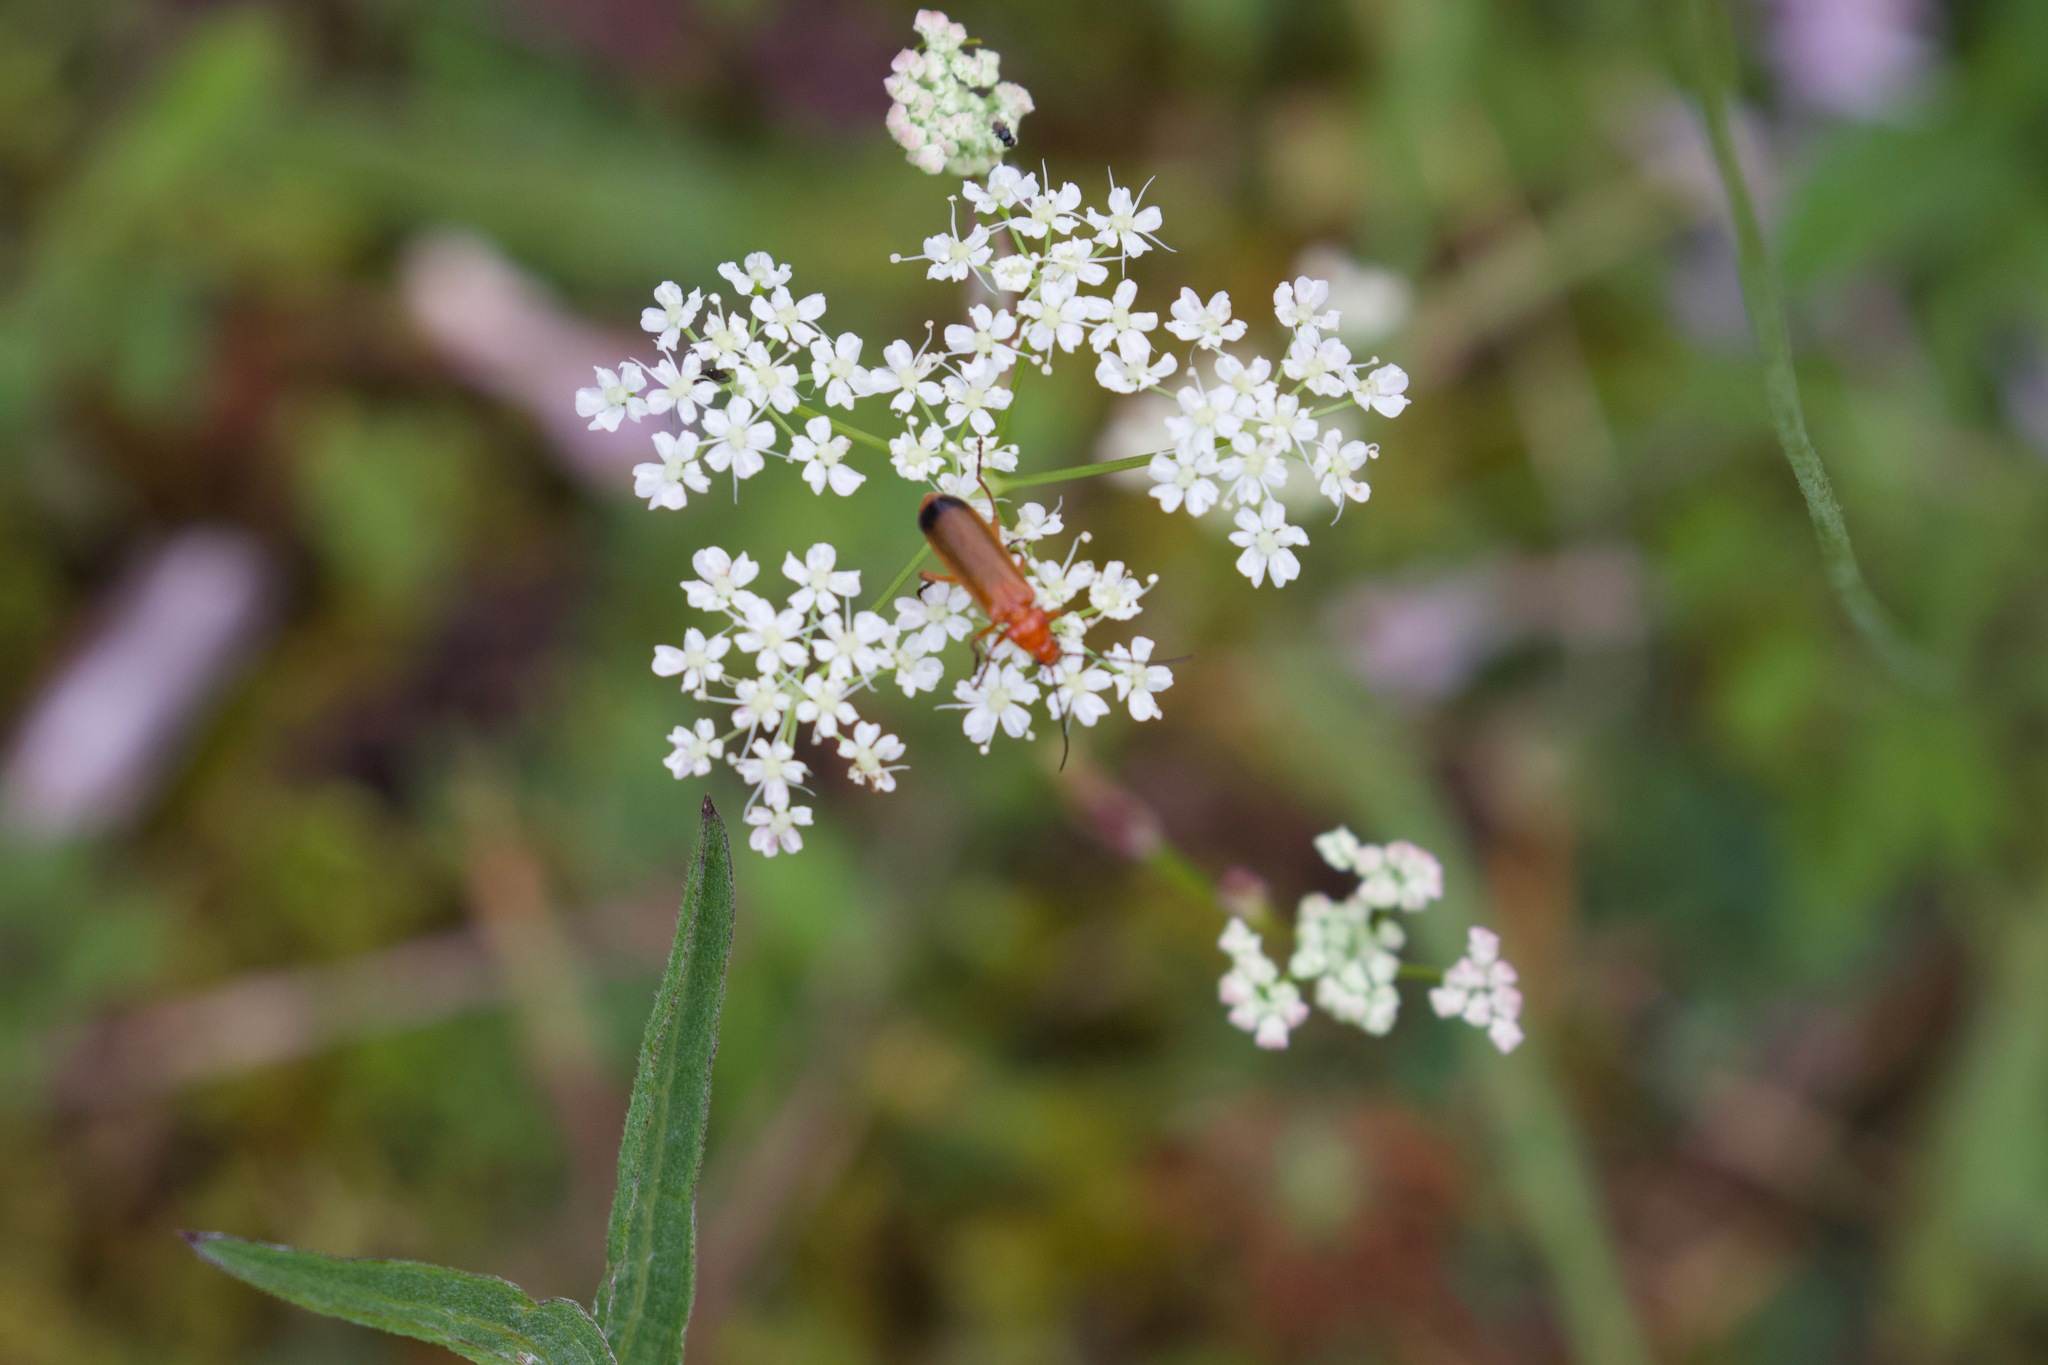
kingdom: Animalia
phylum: Arthropoda
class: Insecta
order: Coleoptera
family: Cantharidae
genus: Rhagonycha
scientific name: Rhagonycha fulva
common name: Common red soldier beetle
